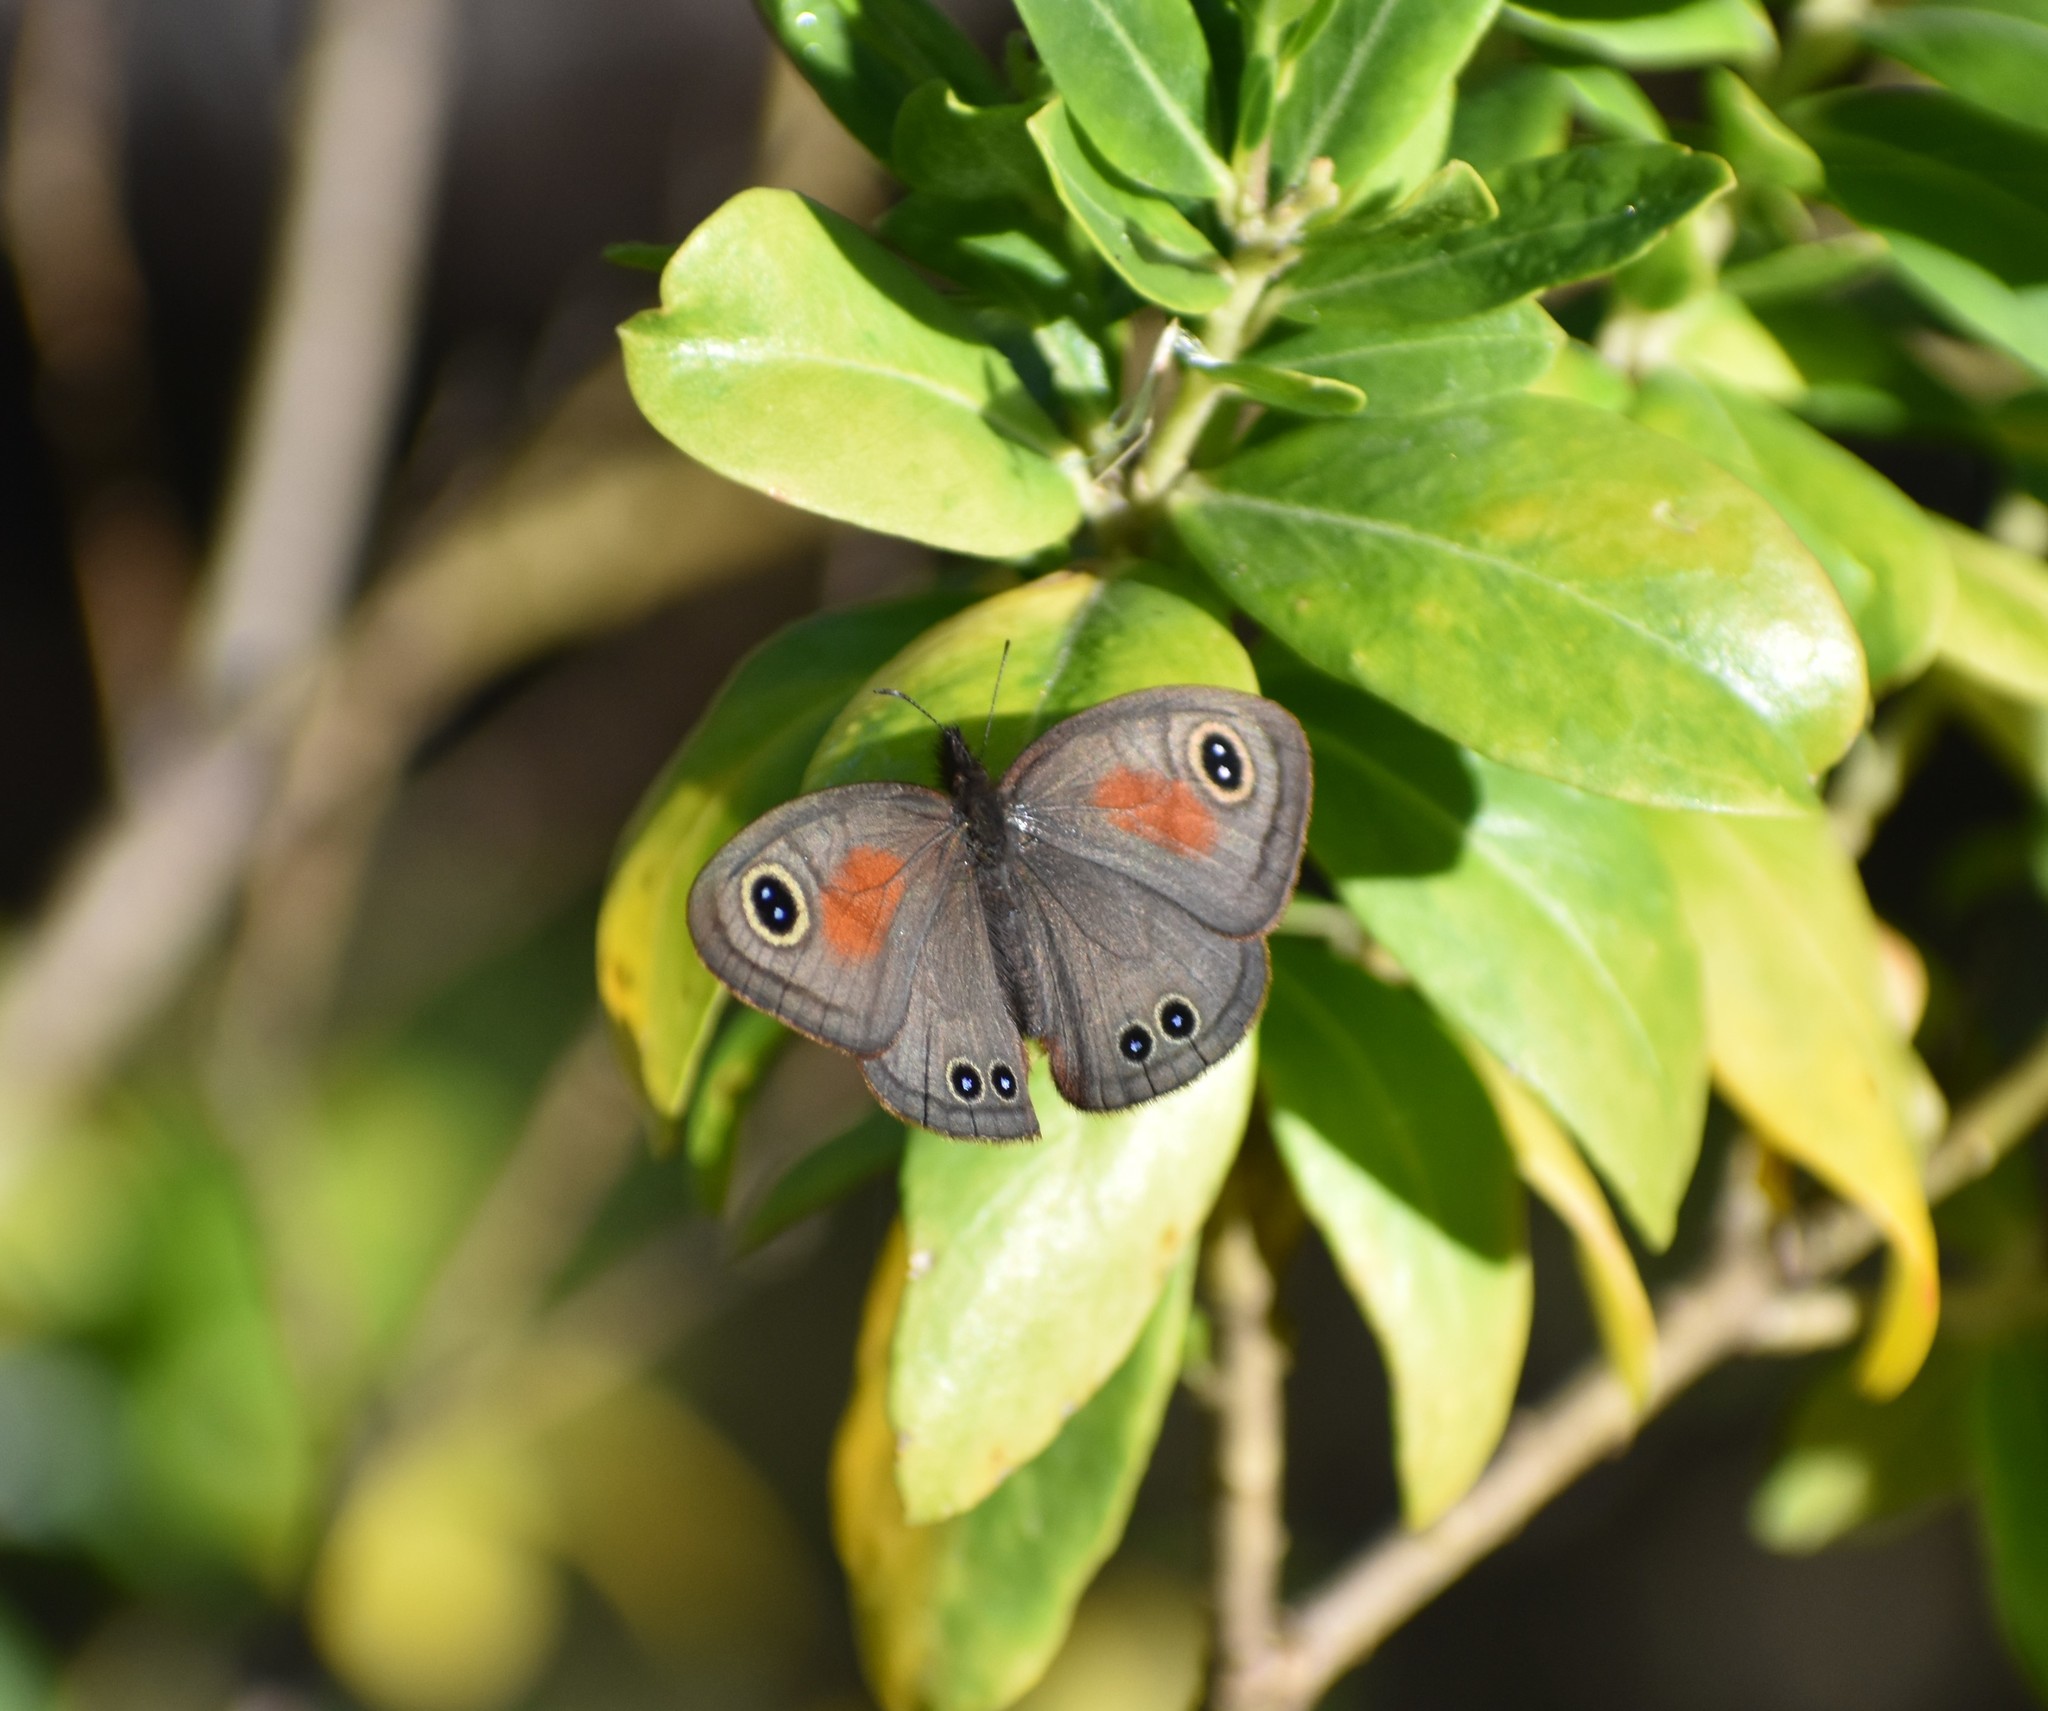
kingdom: Animalia
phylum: Arthropoda
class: Insecta
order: Lepidoptera
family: Nymphalidae
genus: Cassionympha
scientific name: Cassionympha cassius
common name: Rainforest brown
